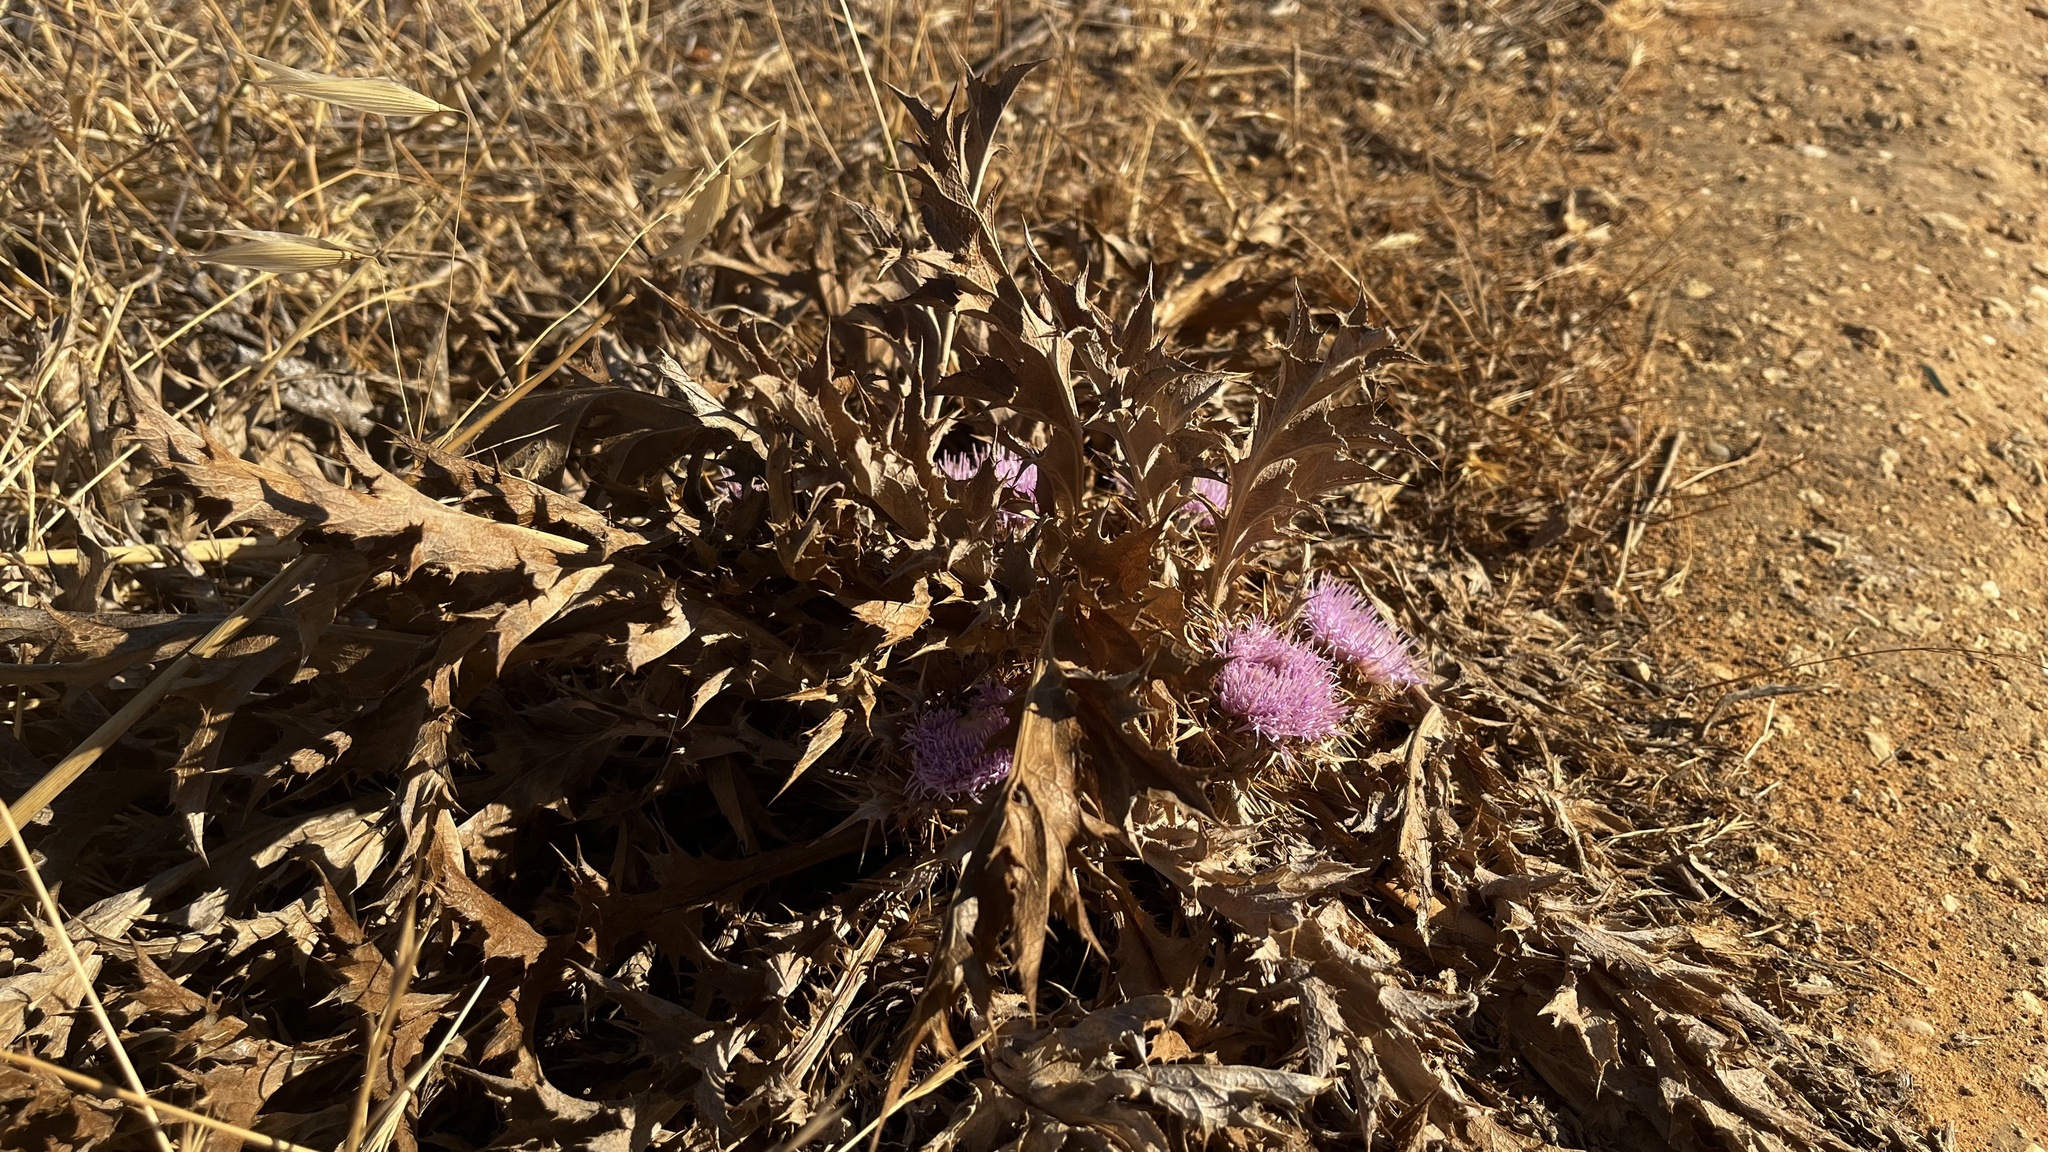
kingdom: Plantae
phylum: Tracheophyta
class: Magnoliopsida
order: Asterales
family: Asteraceae
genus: Chamaeleon
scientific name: Chamaeleon gummifer
